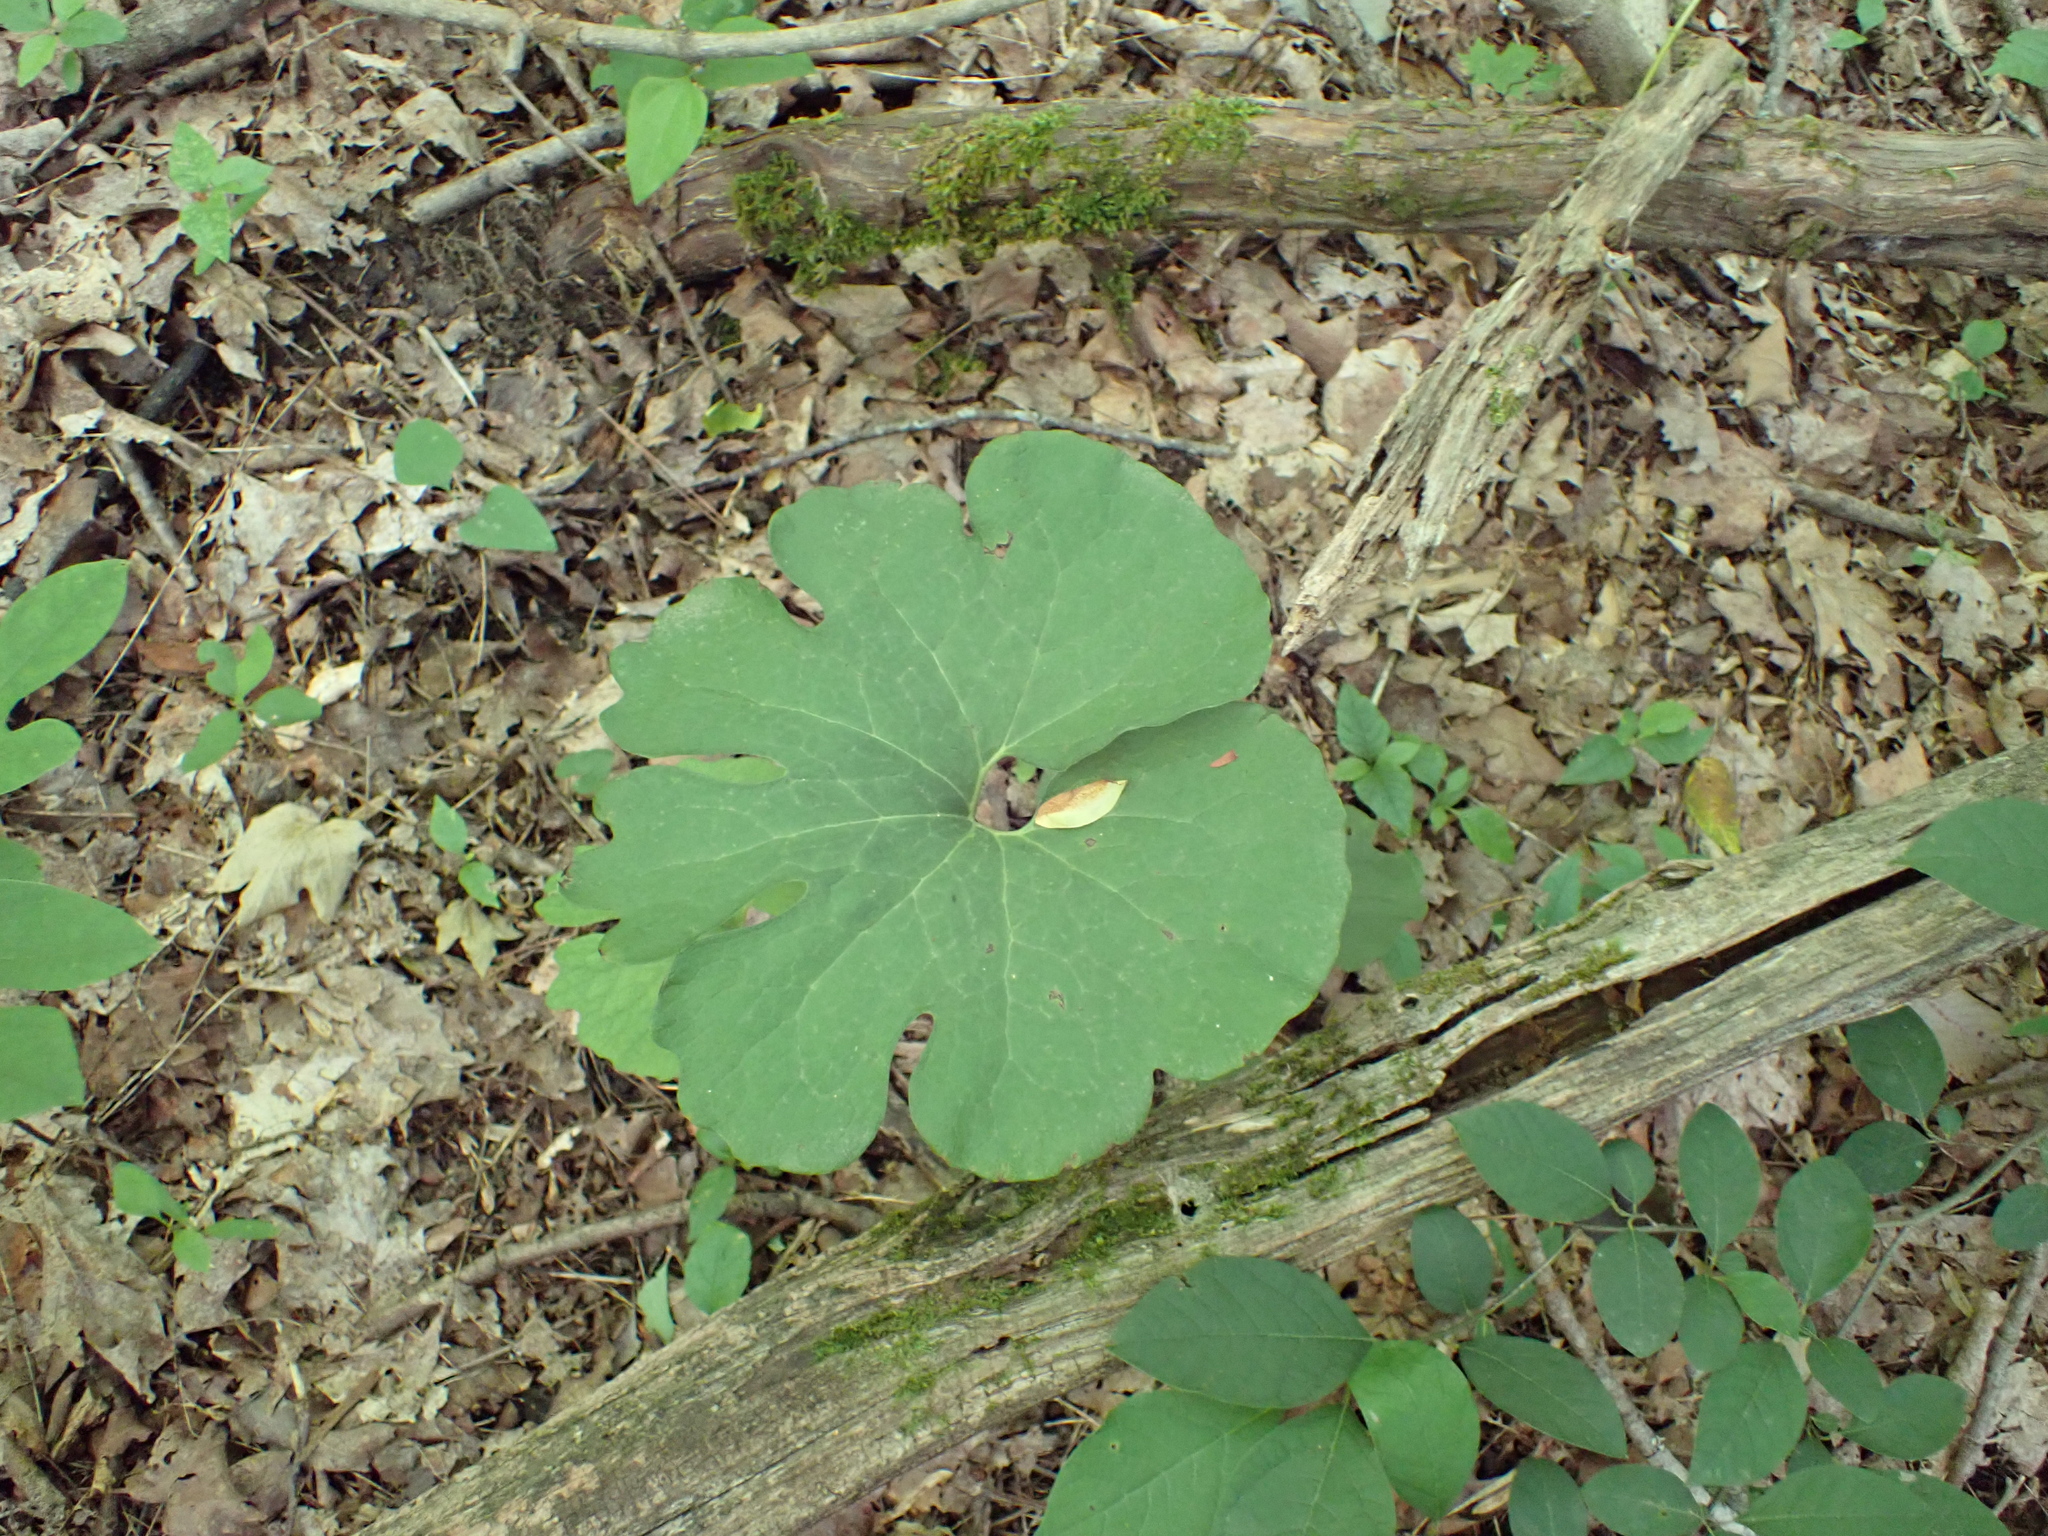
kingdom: Plantae
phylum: Tracheophyta
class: Magnoliopsida
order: Ranunculales
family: Papaveraceae
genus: Sanguinaria
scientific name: Sanguinaria canadensis
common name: Bloodroot
